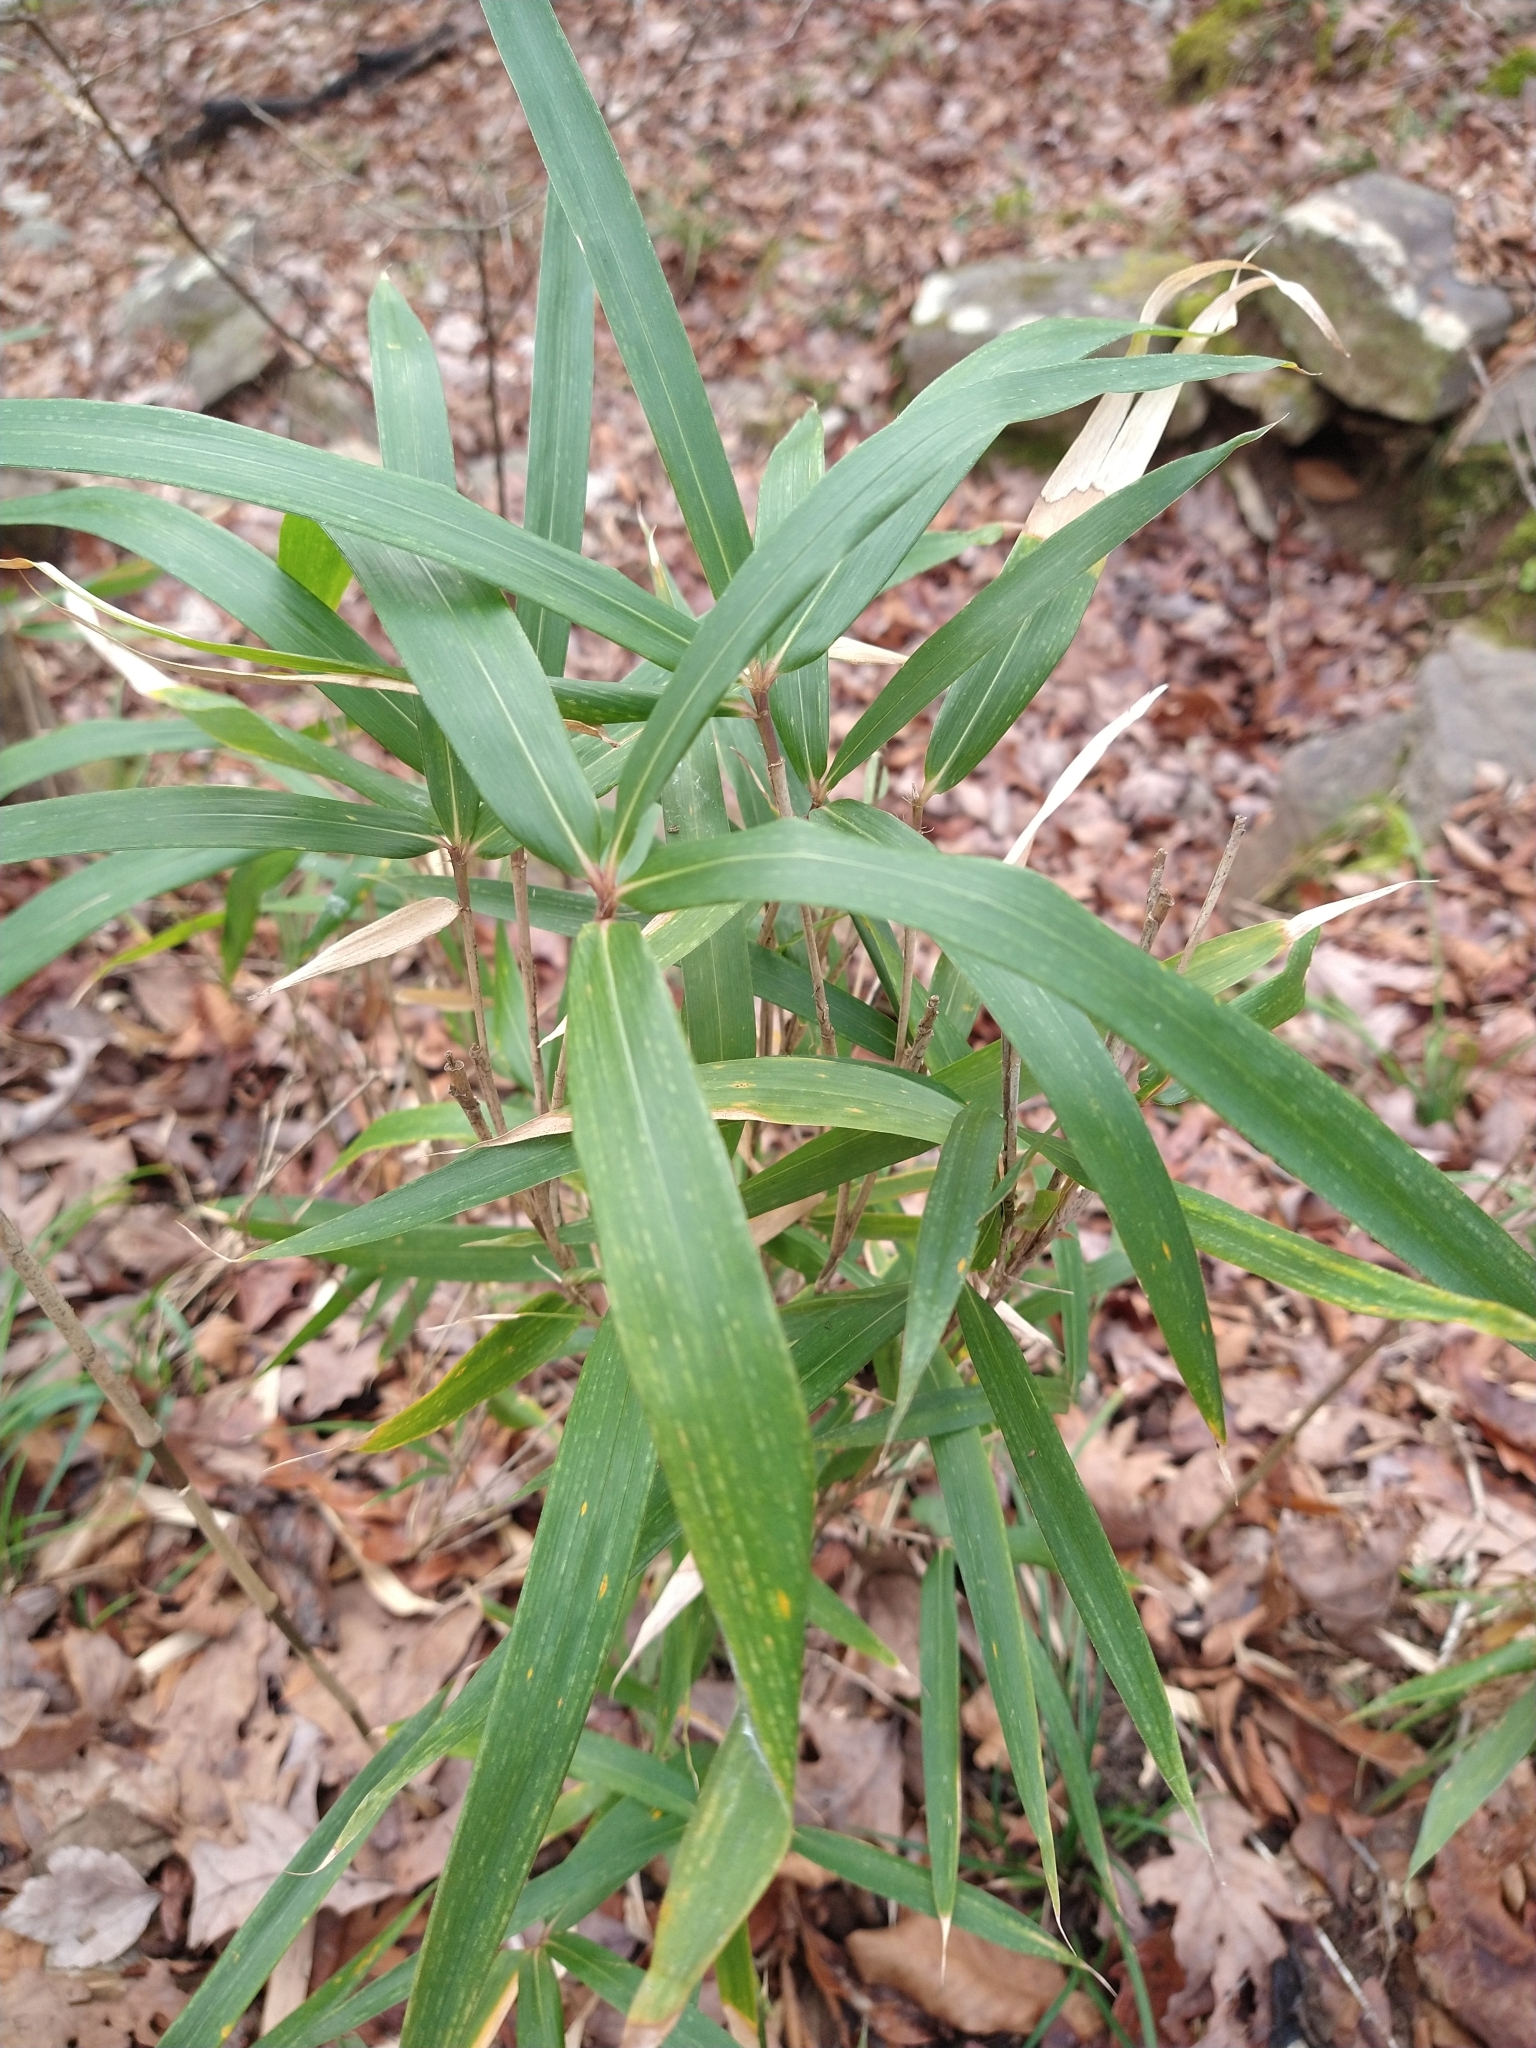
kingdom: Plantae
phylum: Tracheophyta
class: Liliopsida
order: Poales
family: Poaceae
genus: Arundinaria
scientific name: Arundinaria tecta
